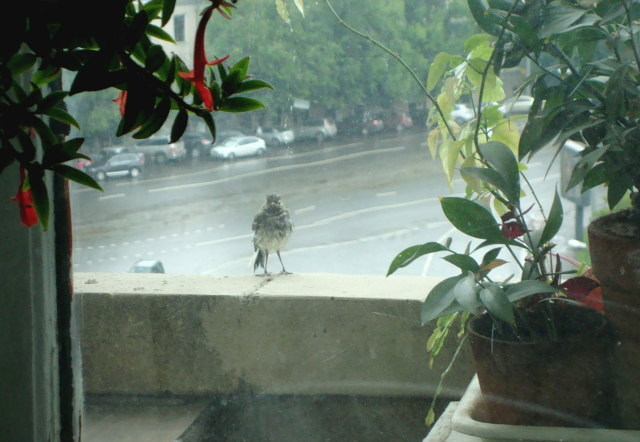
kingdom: Animalia
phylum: Chordata
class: Aves
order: Passeriformes
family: Motacillidae
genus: Motacilla
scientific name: Motacilla alba
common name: White wagtail
